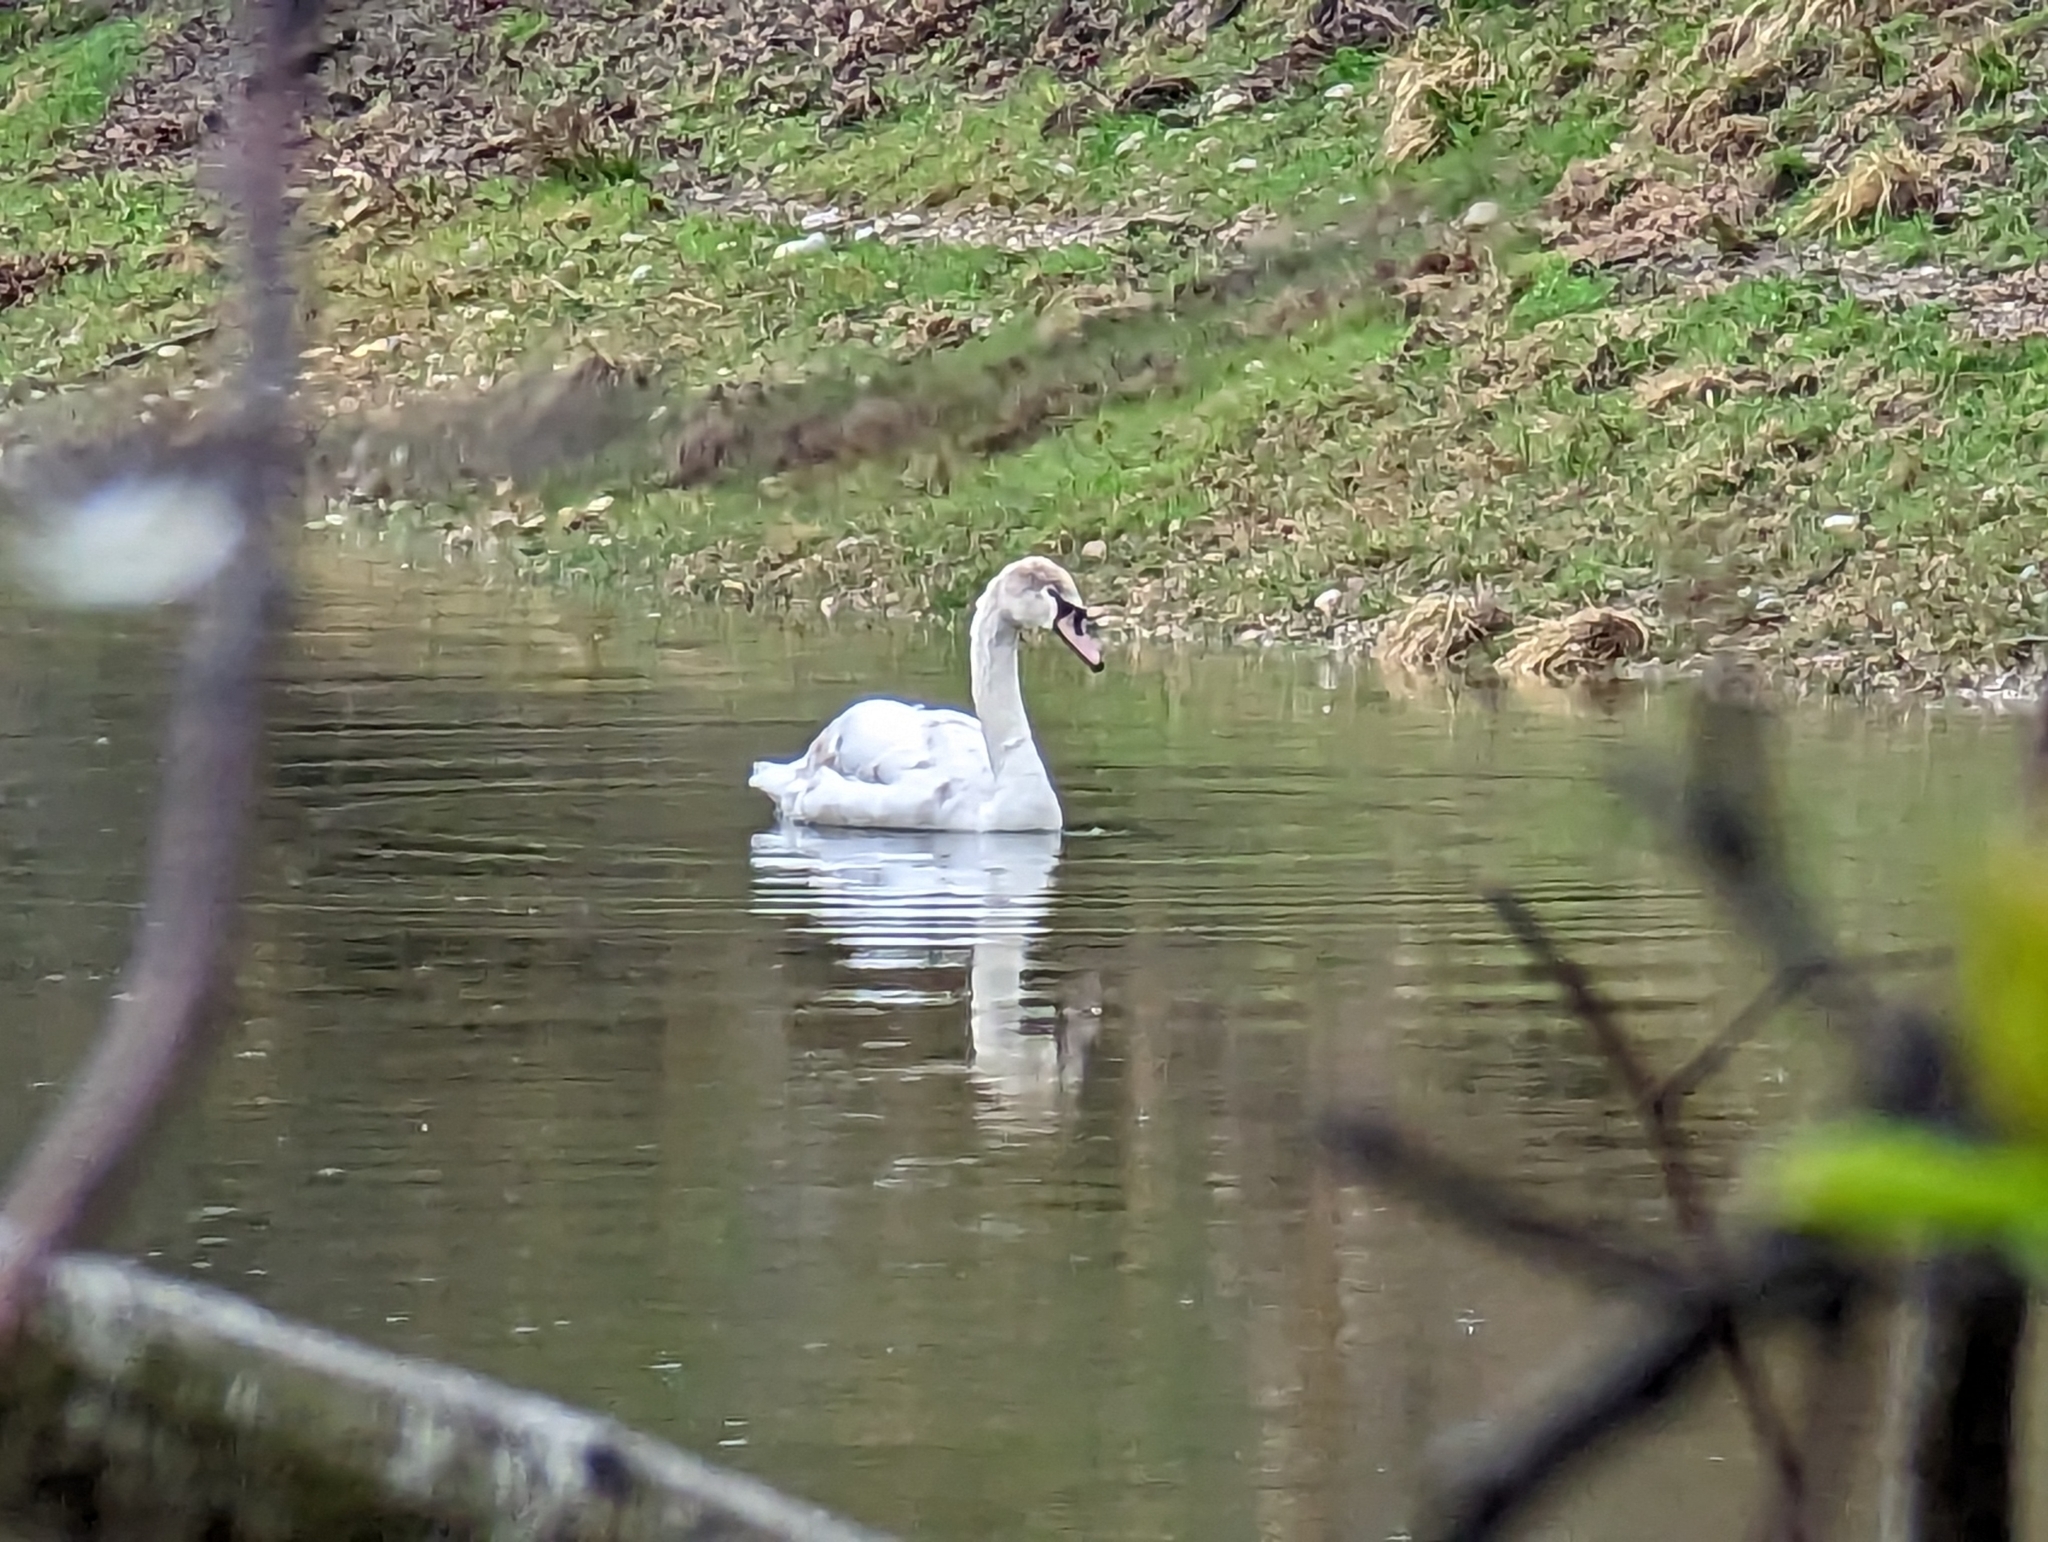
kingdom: Animalia
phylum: Chordata
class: Aves
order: Anseriformes
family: Anatidae
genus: Cygnus
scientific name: Cygnus olor
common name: Mute swan
